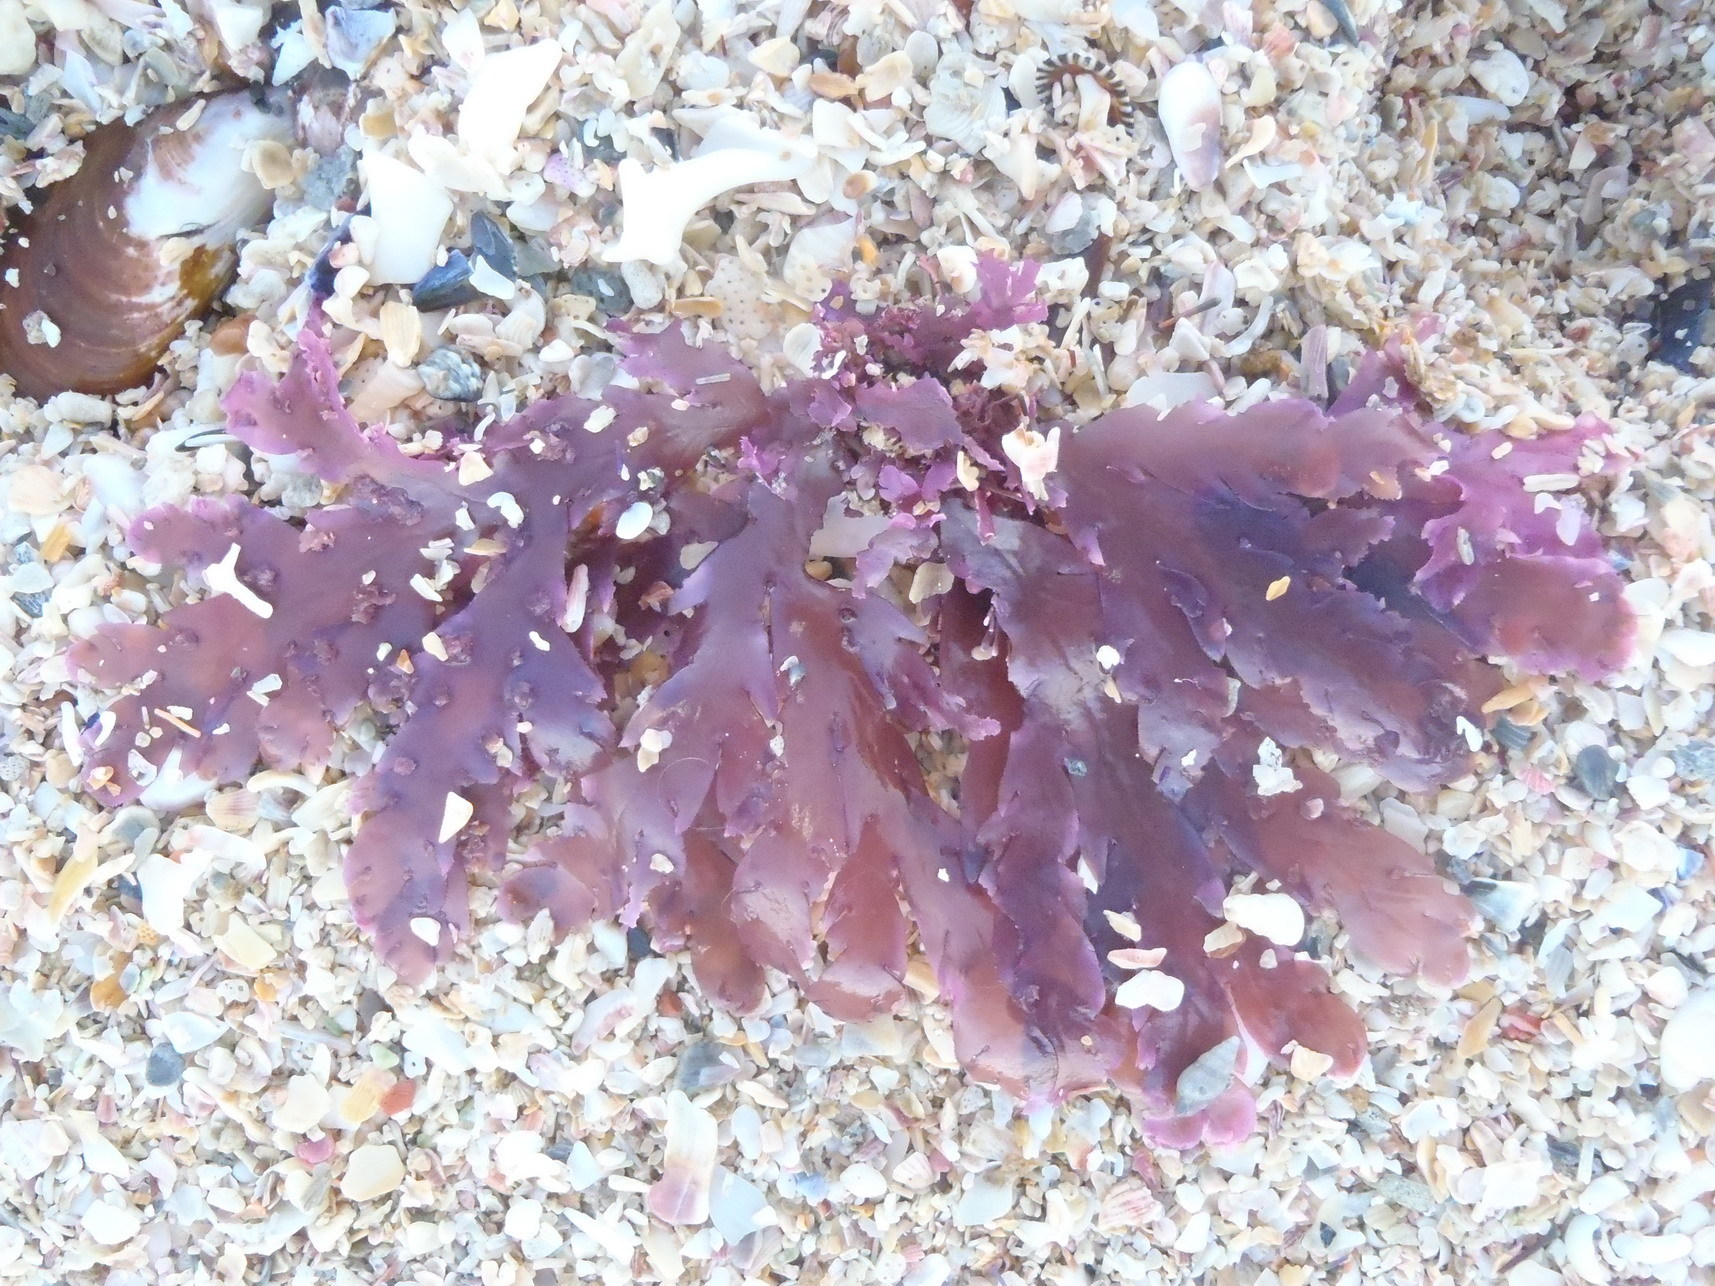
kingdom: Plantae
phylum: Rhodophyta
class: Florideophyceae
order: Plocamiales
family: Plocamiaceae
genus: Plocamium
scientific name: Plocamium corallorhiza
